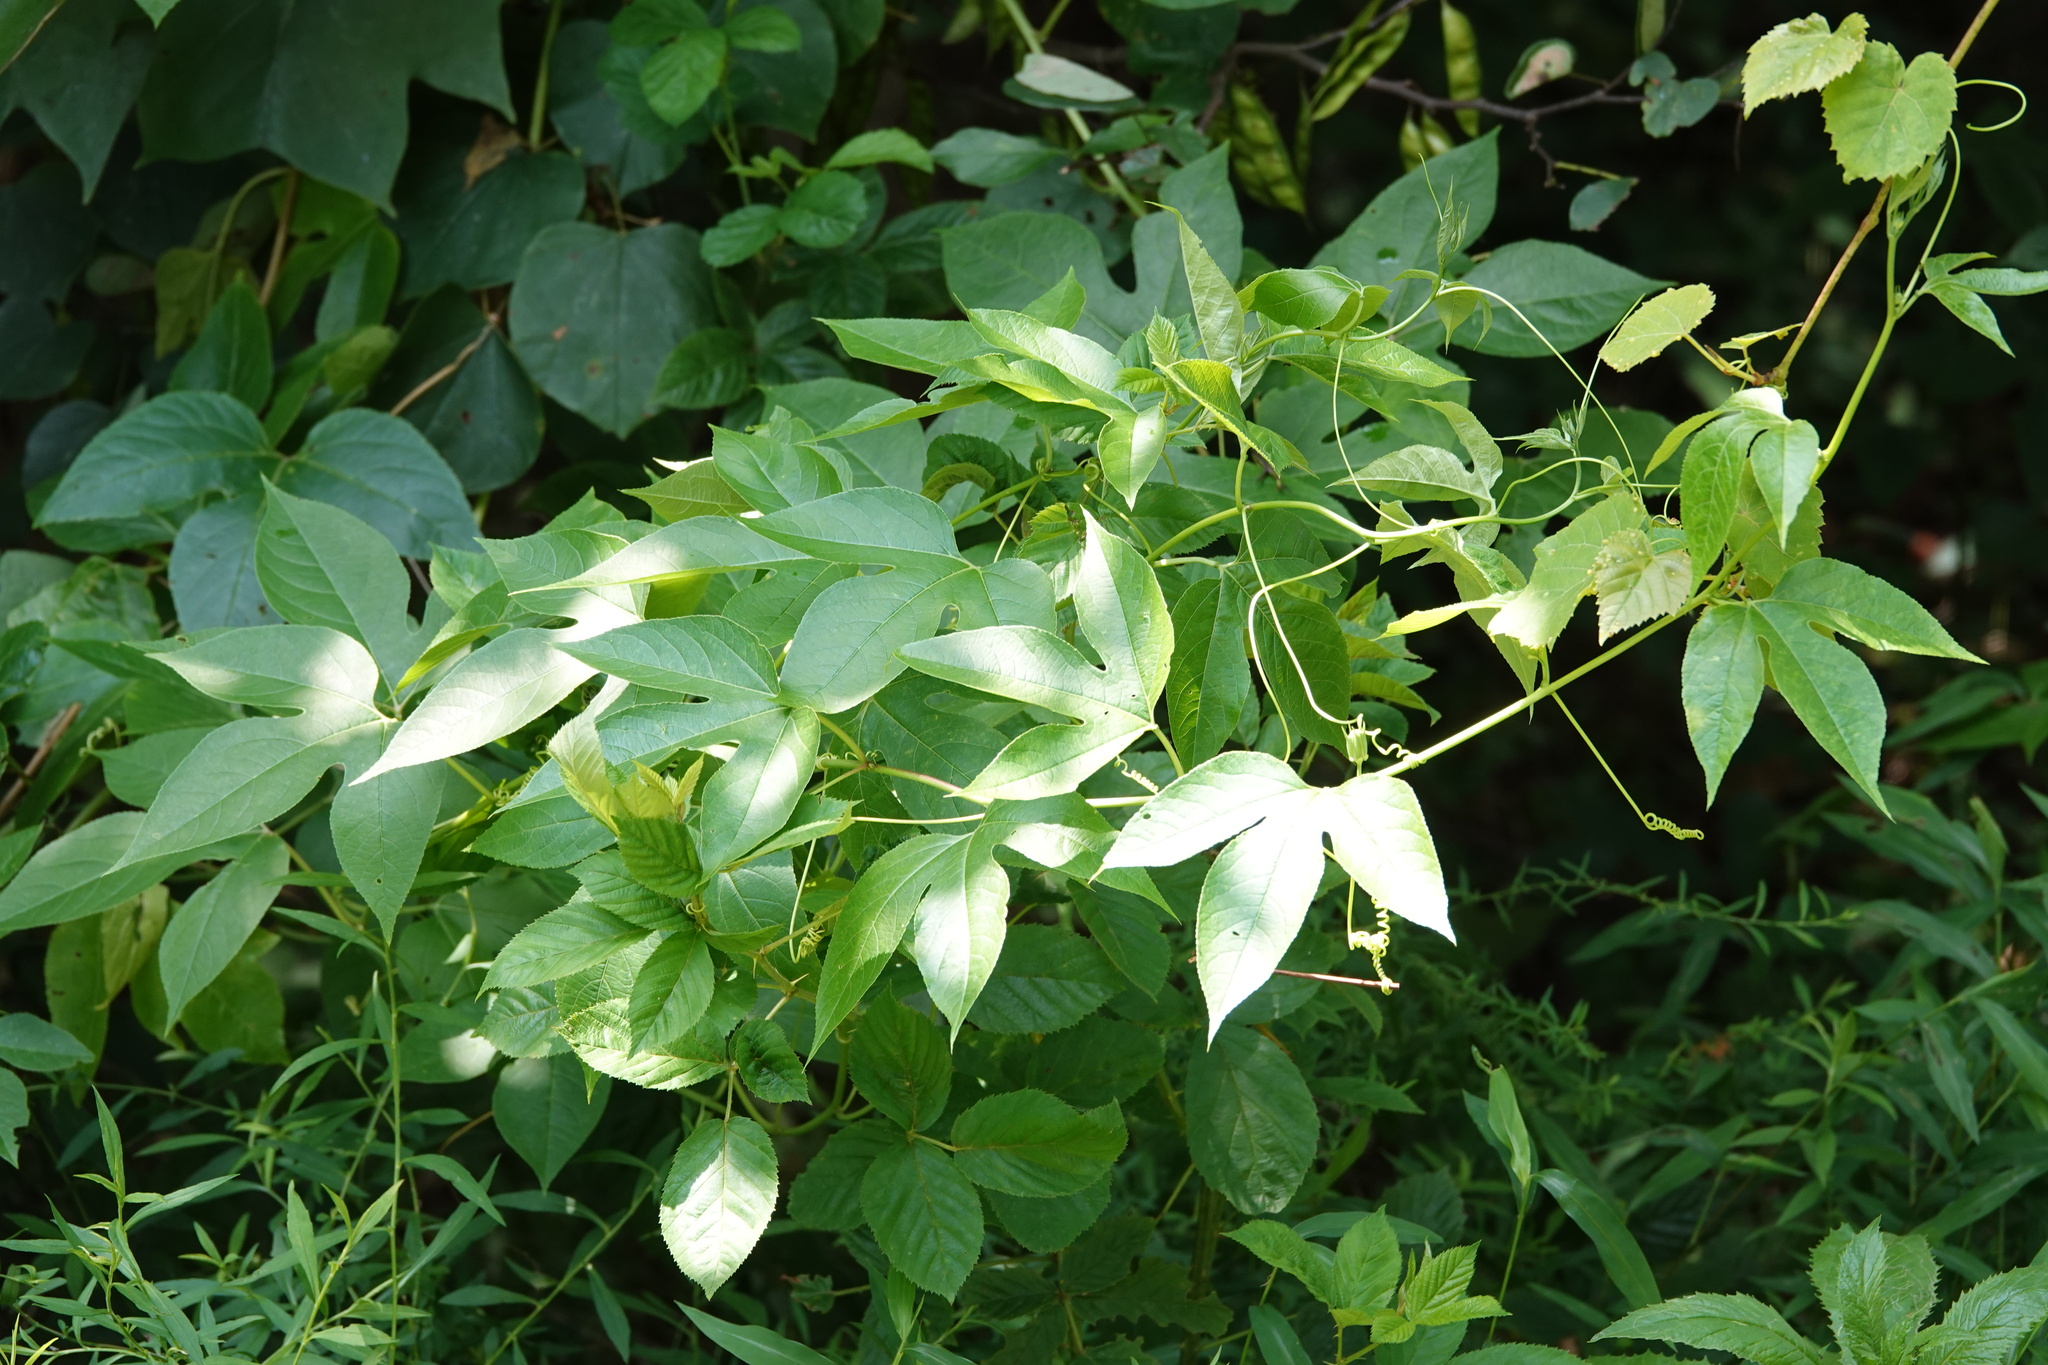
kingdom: Plantae
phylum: Tracheophyta
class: Magnoliopsida
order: Malpighiales
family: Passifloraceae
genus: Passiflora
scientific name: Passiflora incarnata
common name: Apricot-vine
